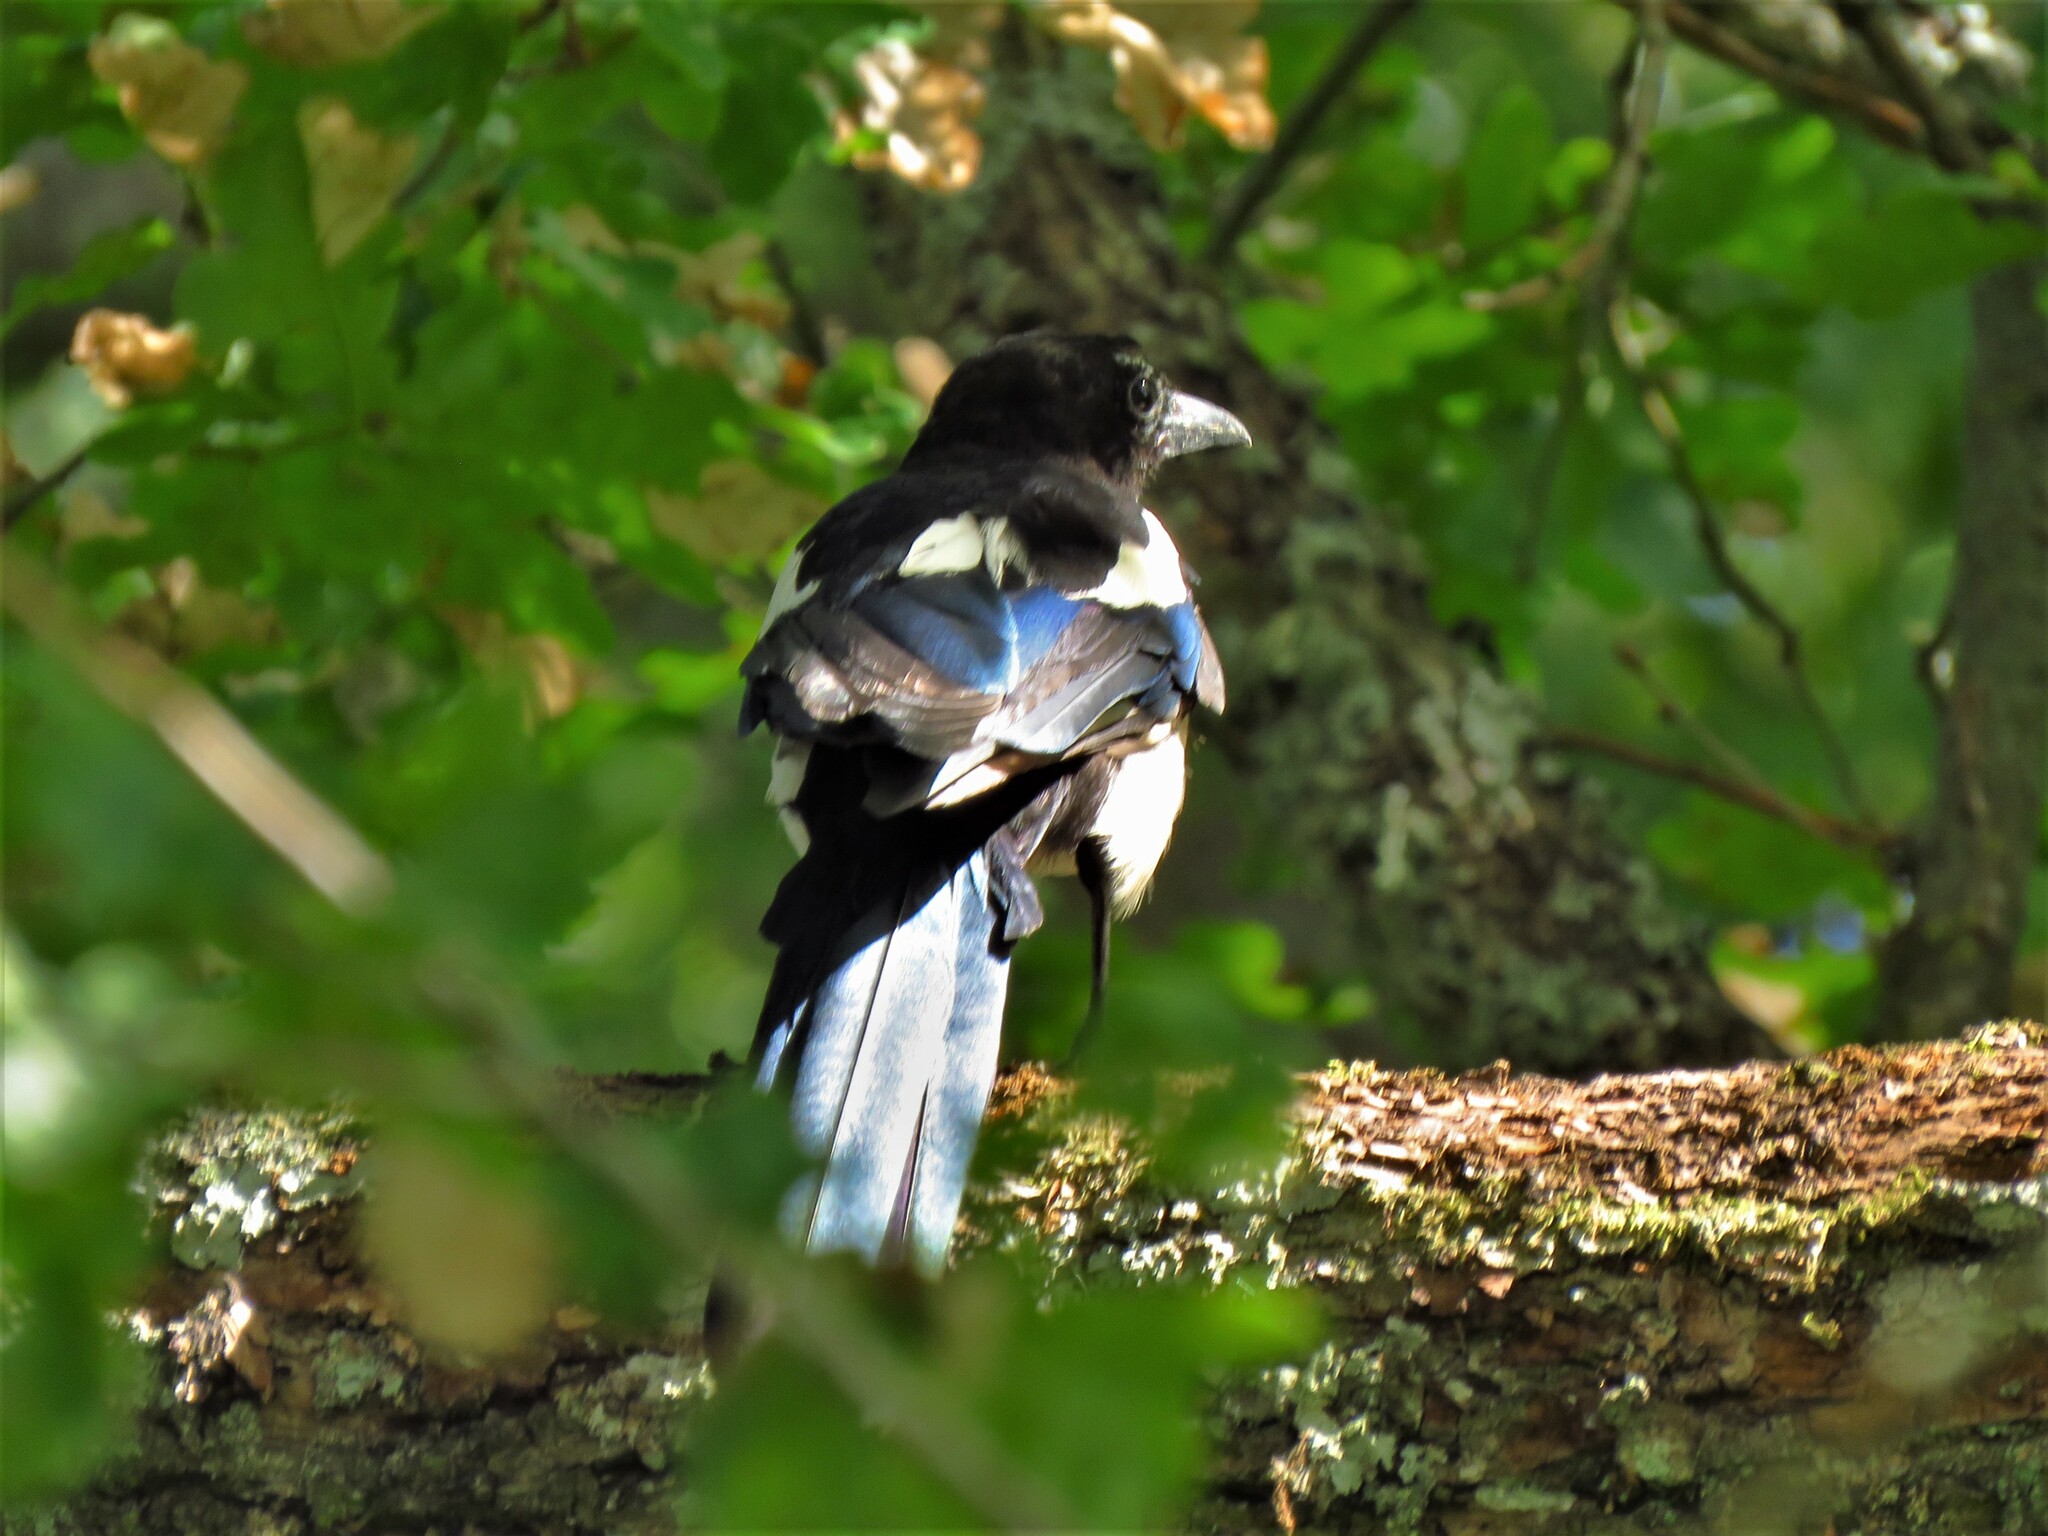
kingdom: Animalia
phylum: Chordata
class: Aves
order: Passeriformes
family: Corvidae
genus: Pica
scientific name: Pica pica
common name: Eurasian magpie
